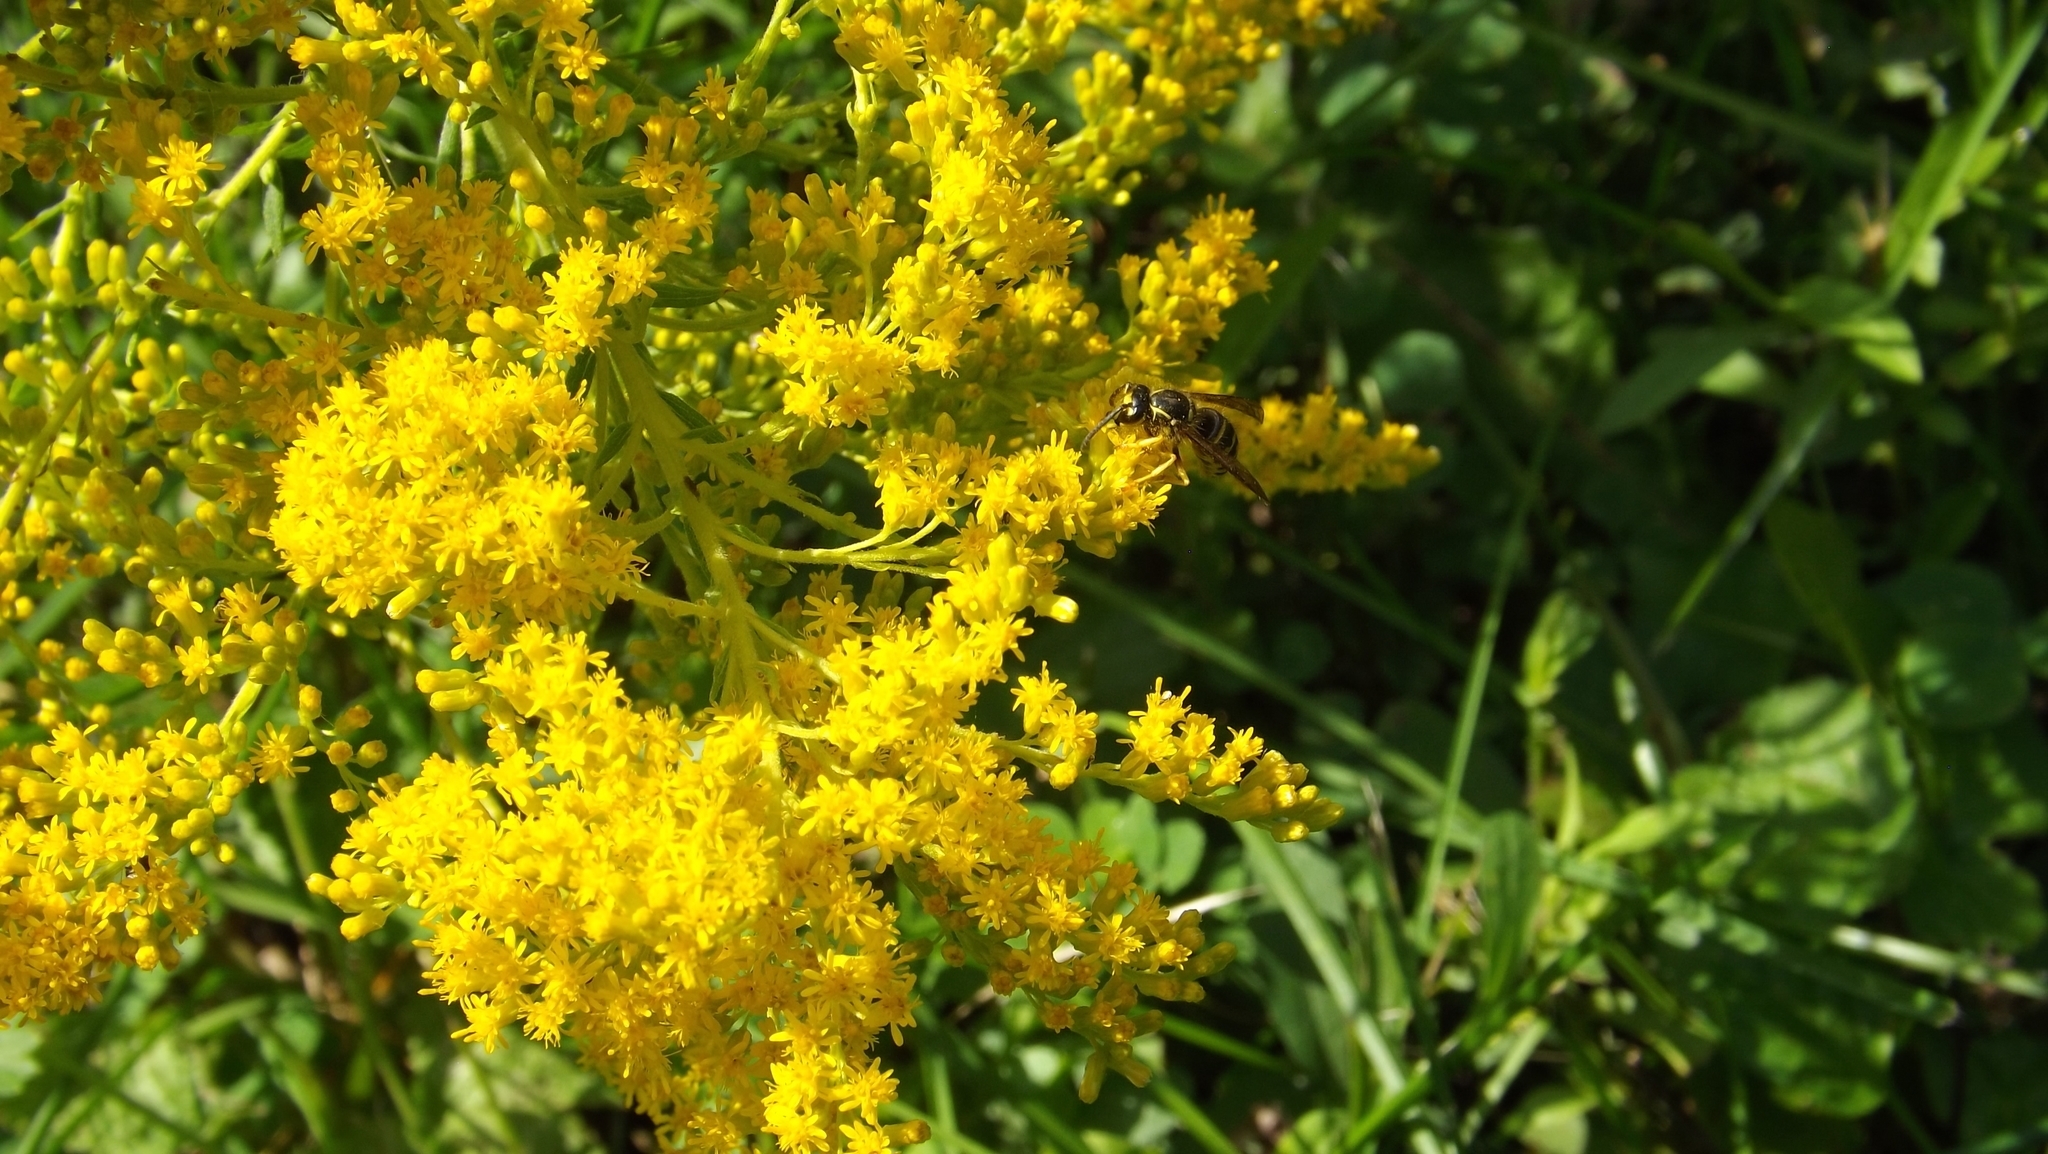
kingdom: Animalia
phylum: Arthropoda
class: Insecta
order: Hymenoptera
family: Vespidae
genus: Dolichovespula
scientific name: Dolichovespula arenaria
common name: Aerial yellowjacket
